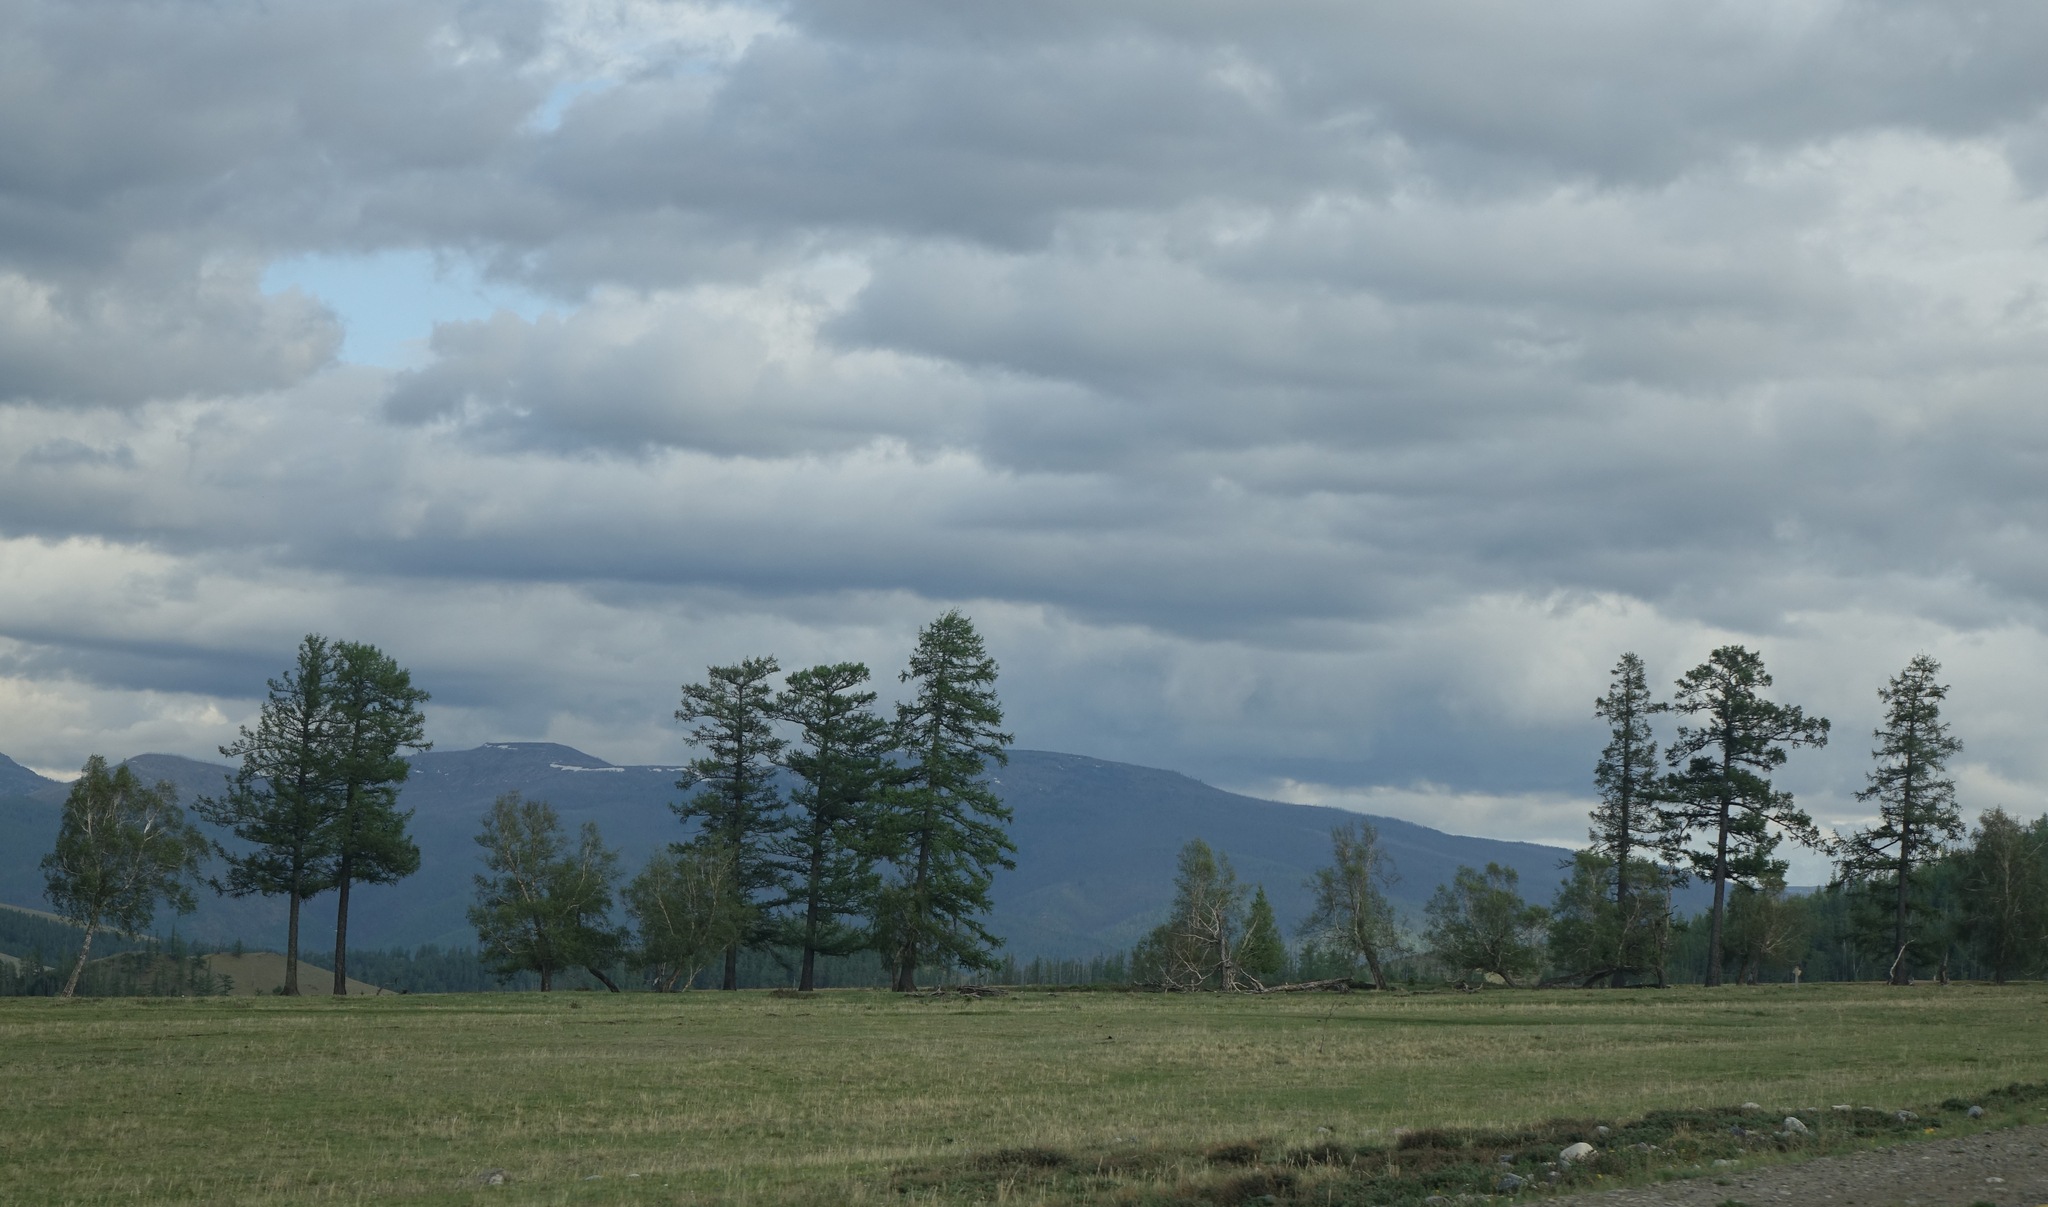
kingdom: Plantae
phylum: Tracheophyta
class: Pinopsida
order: Pinales
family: Pinaceae
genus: Larix
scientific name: Larix sibirica
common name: Siberian larch
